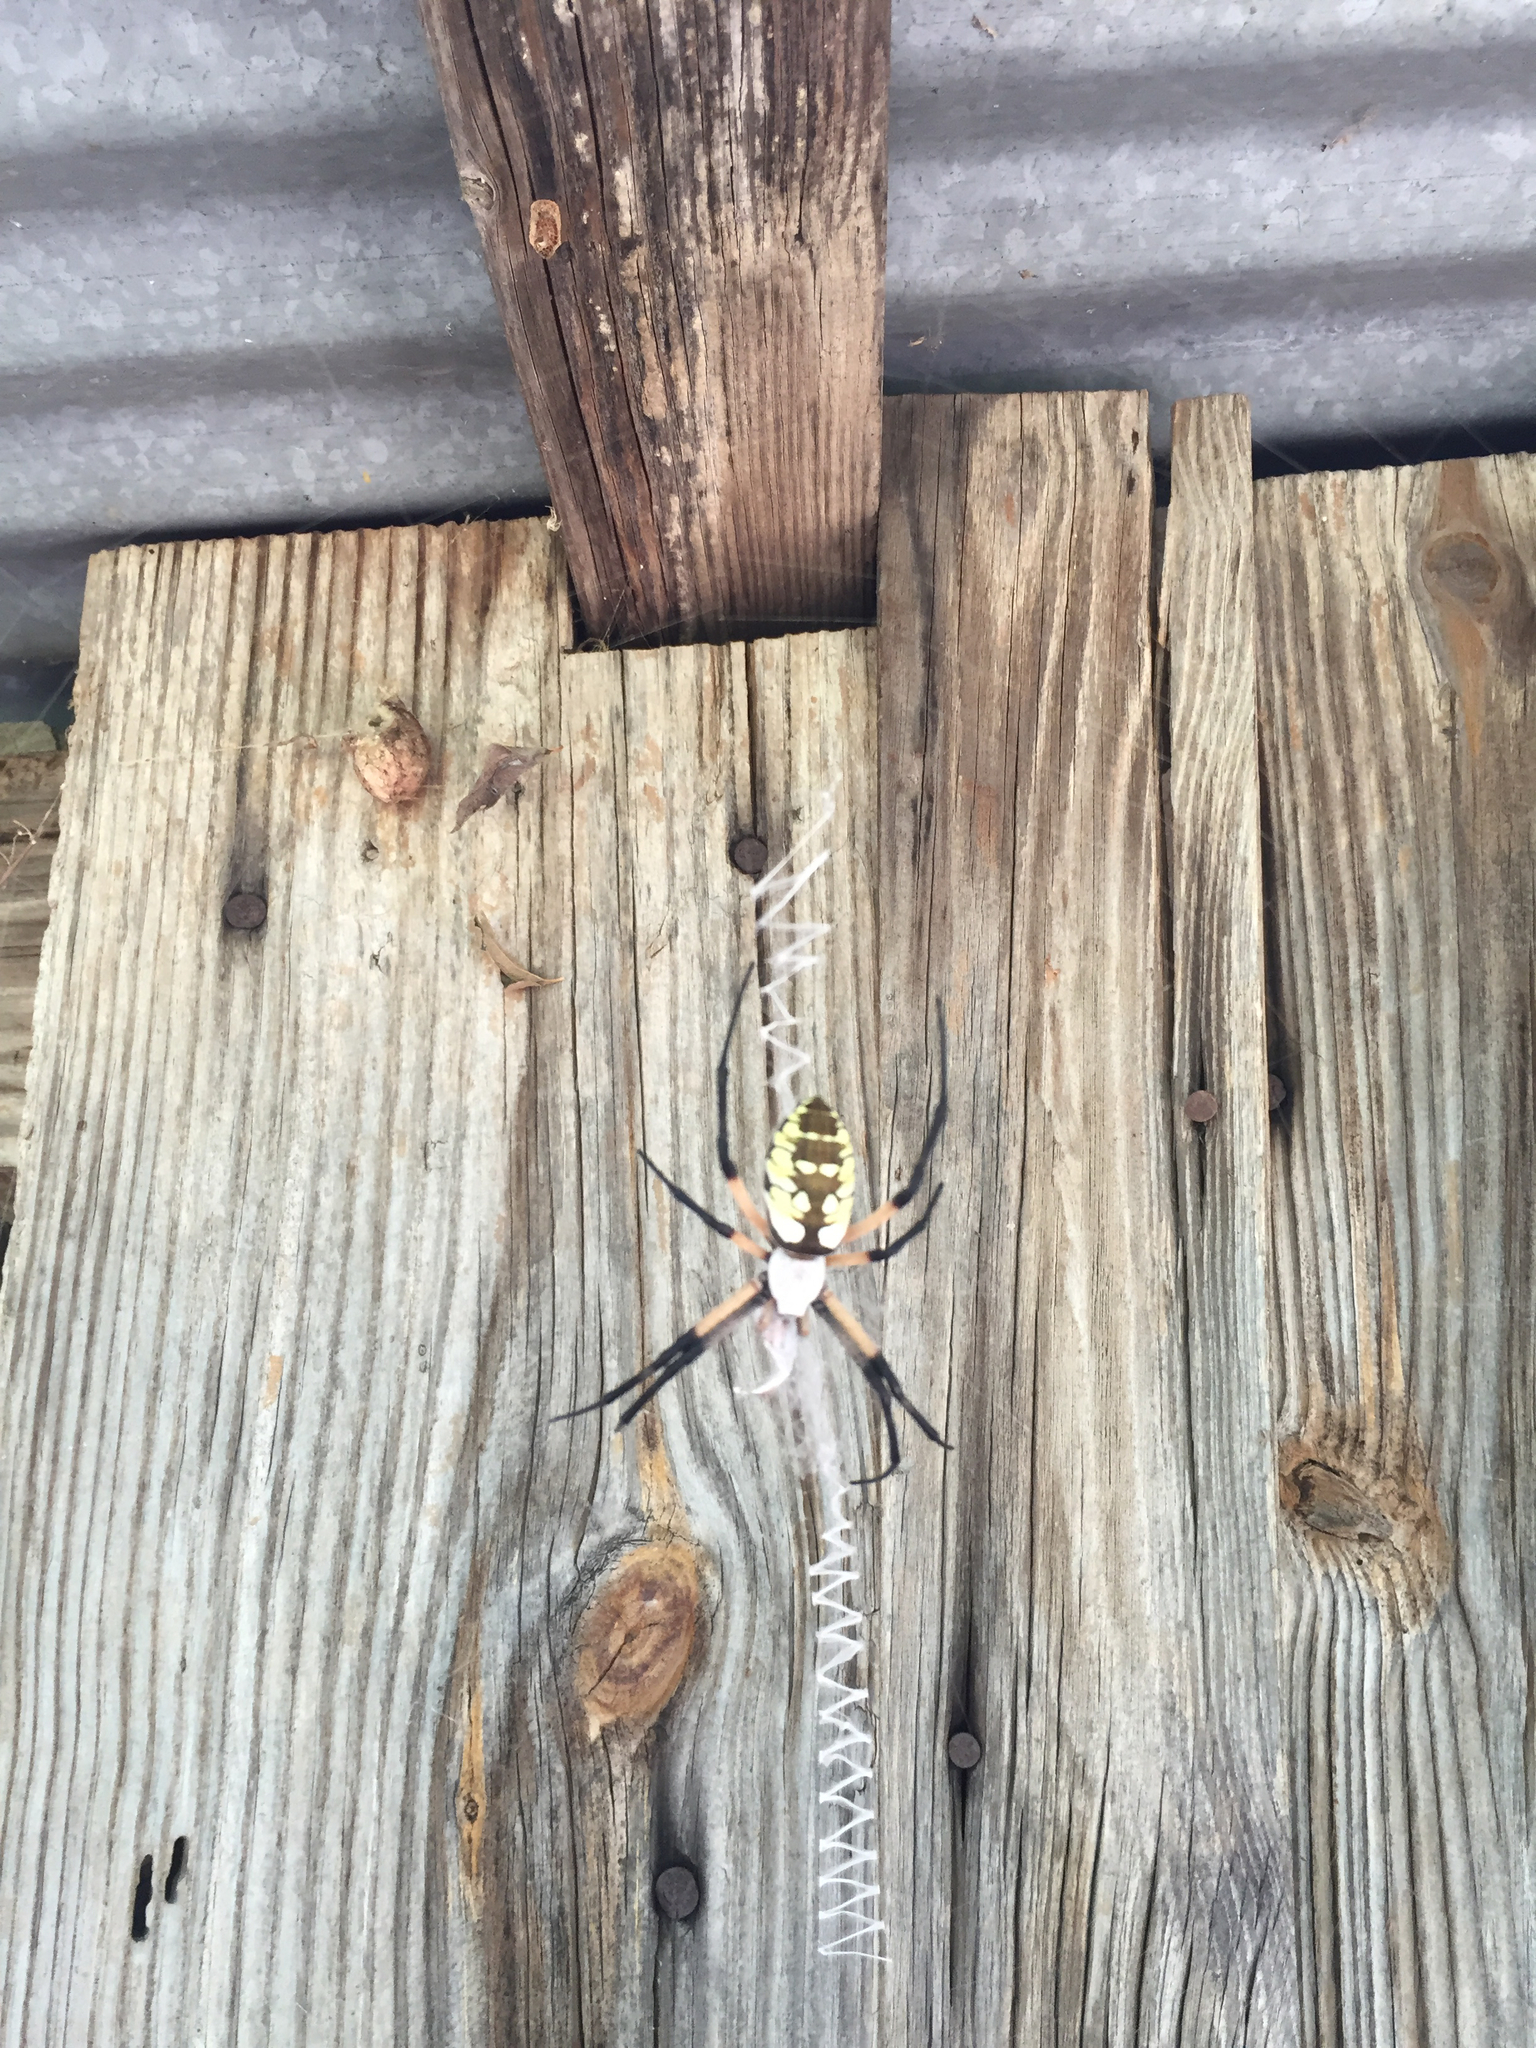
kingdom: Animalia
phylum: Arthropoda
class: Arachnida
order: Araneae
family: Araneidae
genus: Argiope
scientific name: Argiope aurantia
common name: Orb weavers
